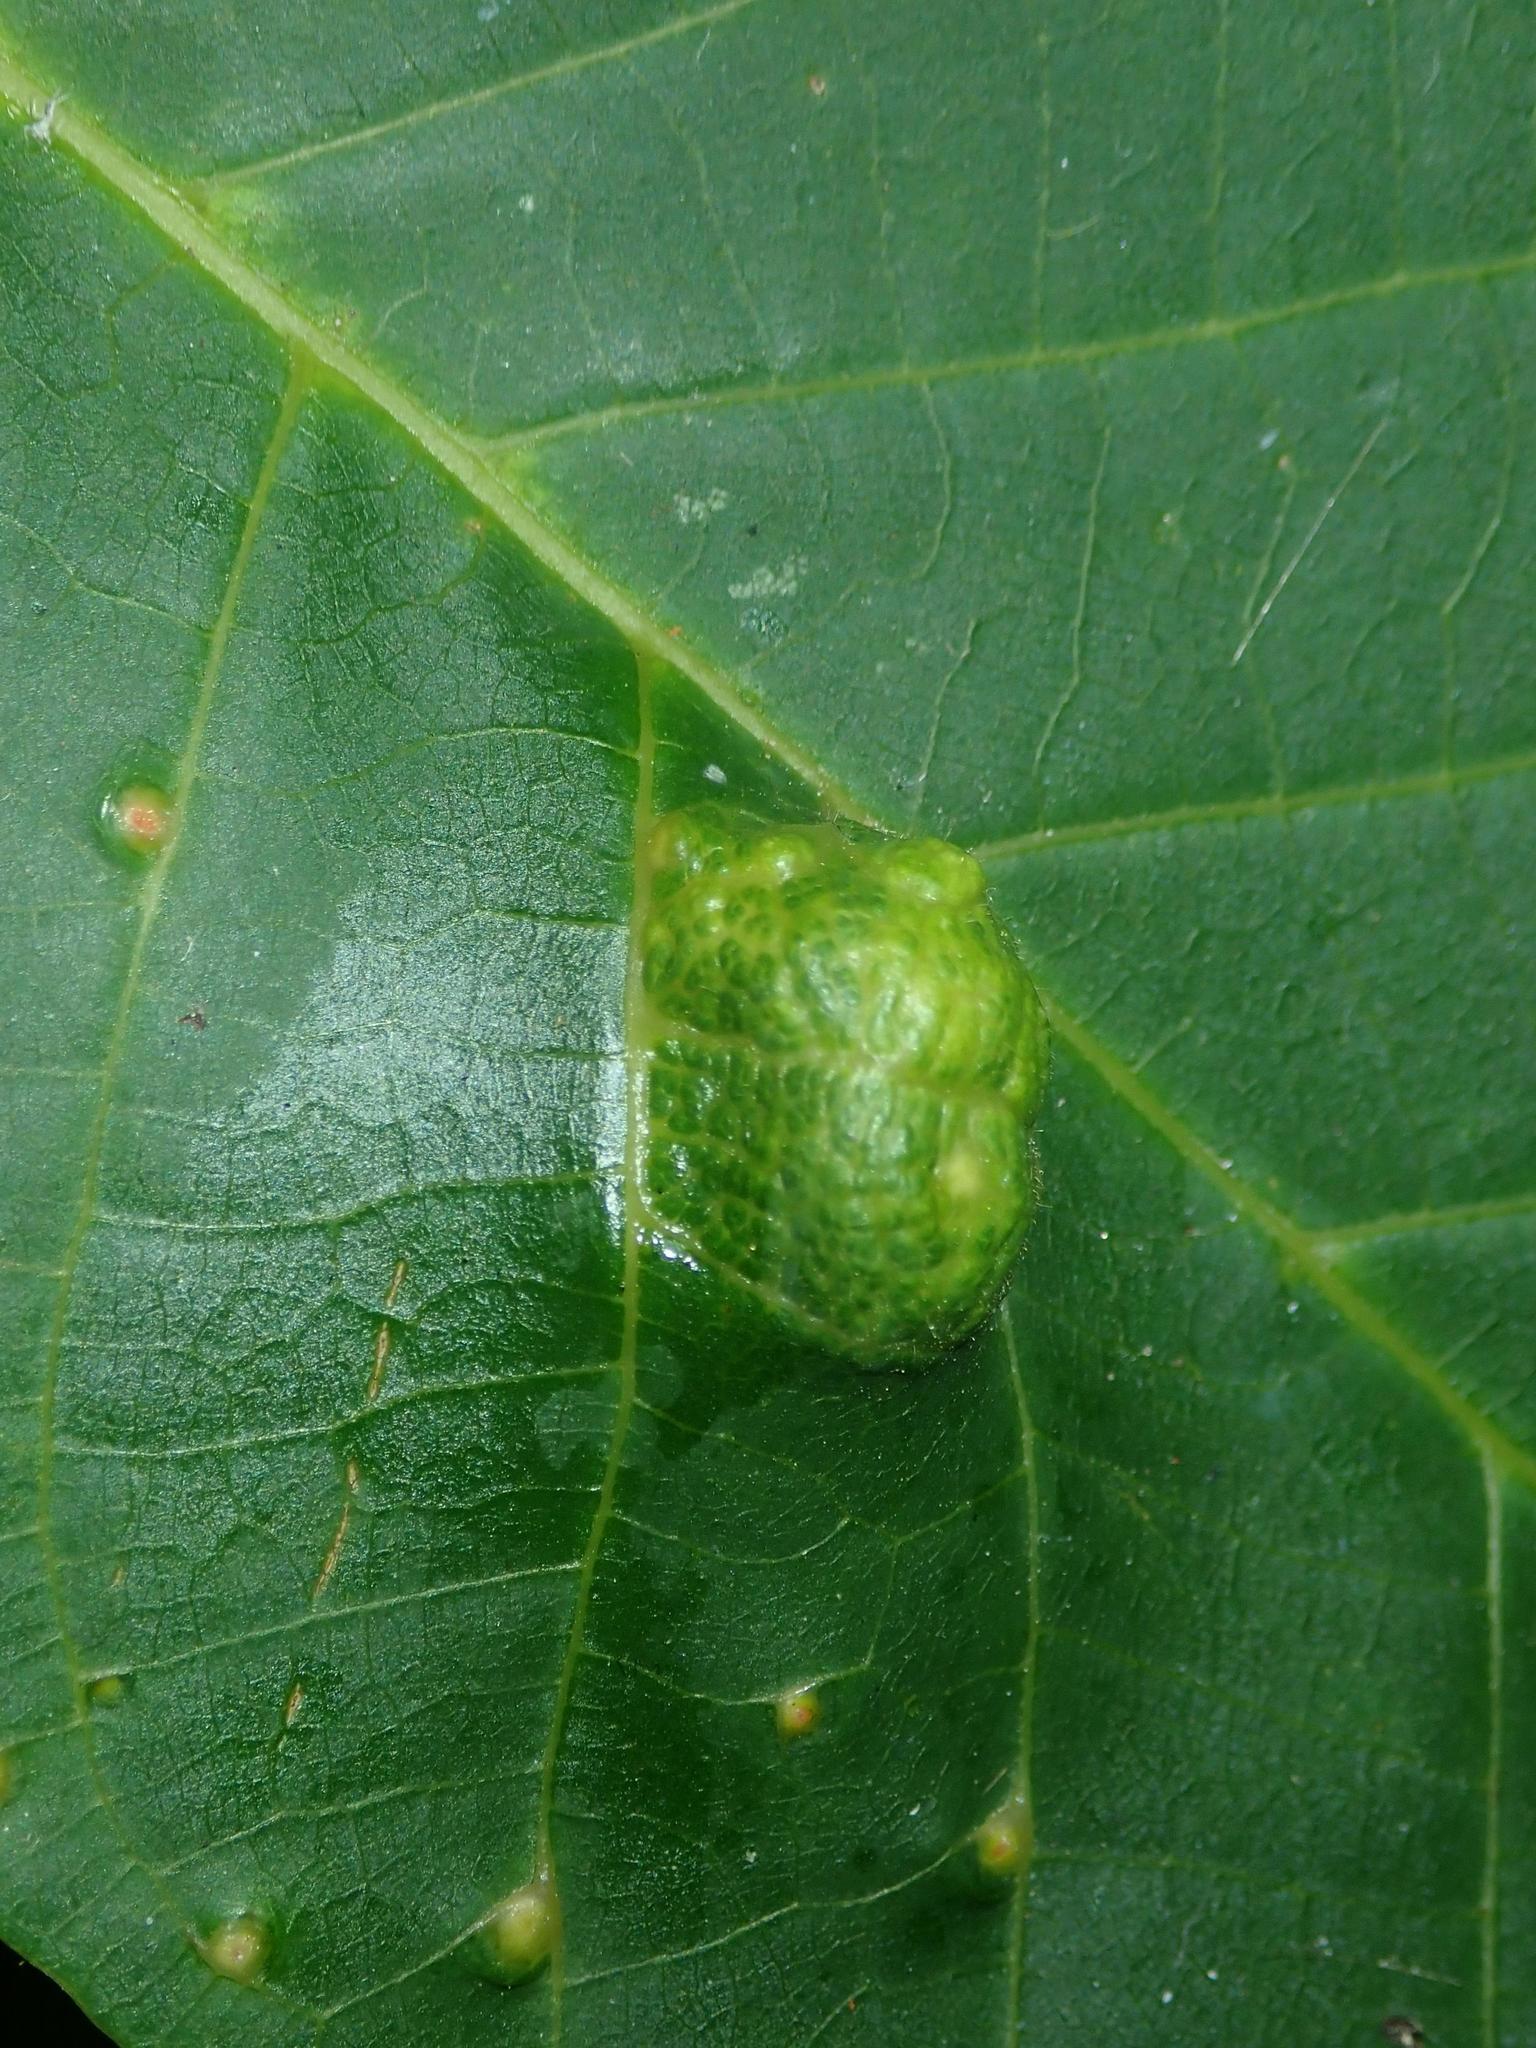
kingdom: Animalia
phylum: Arthropoda
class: Arachnida
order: Trombidiformes
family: Eriophyidae
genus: Aceria
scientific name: Aceria erinea
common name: Persian walnut erineum mite
